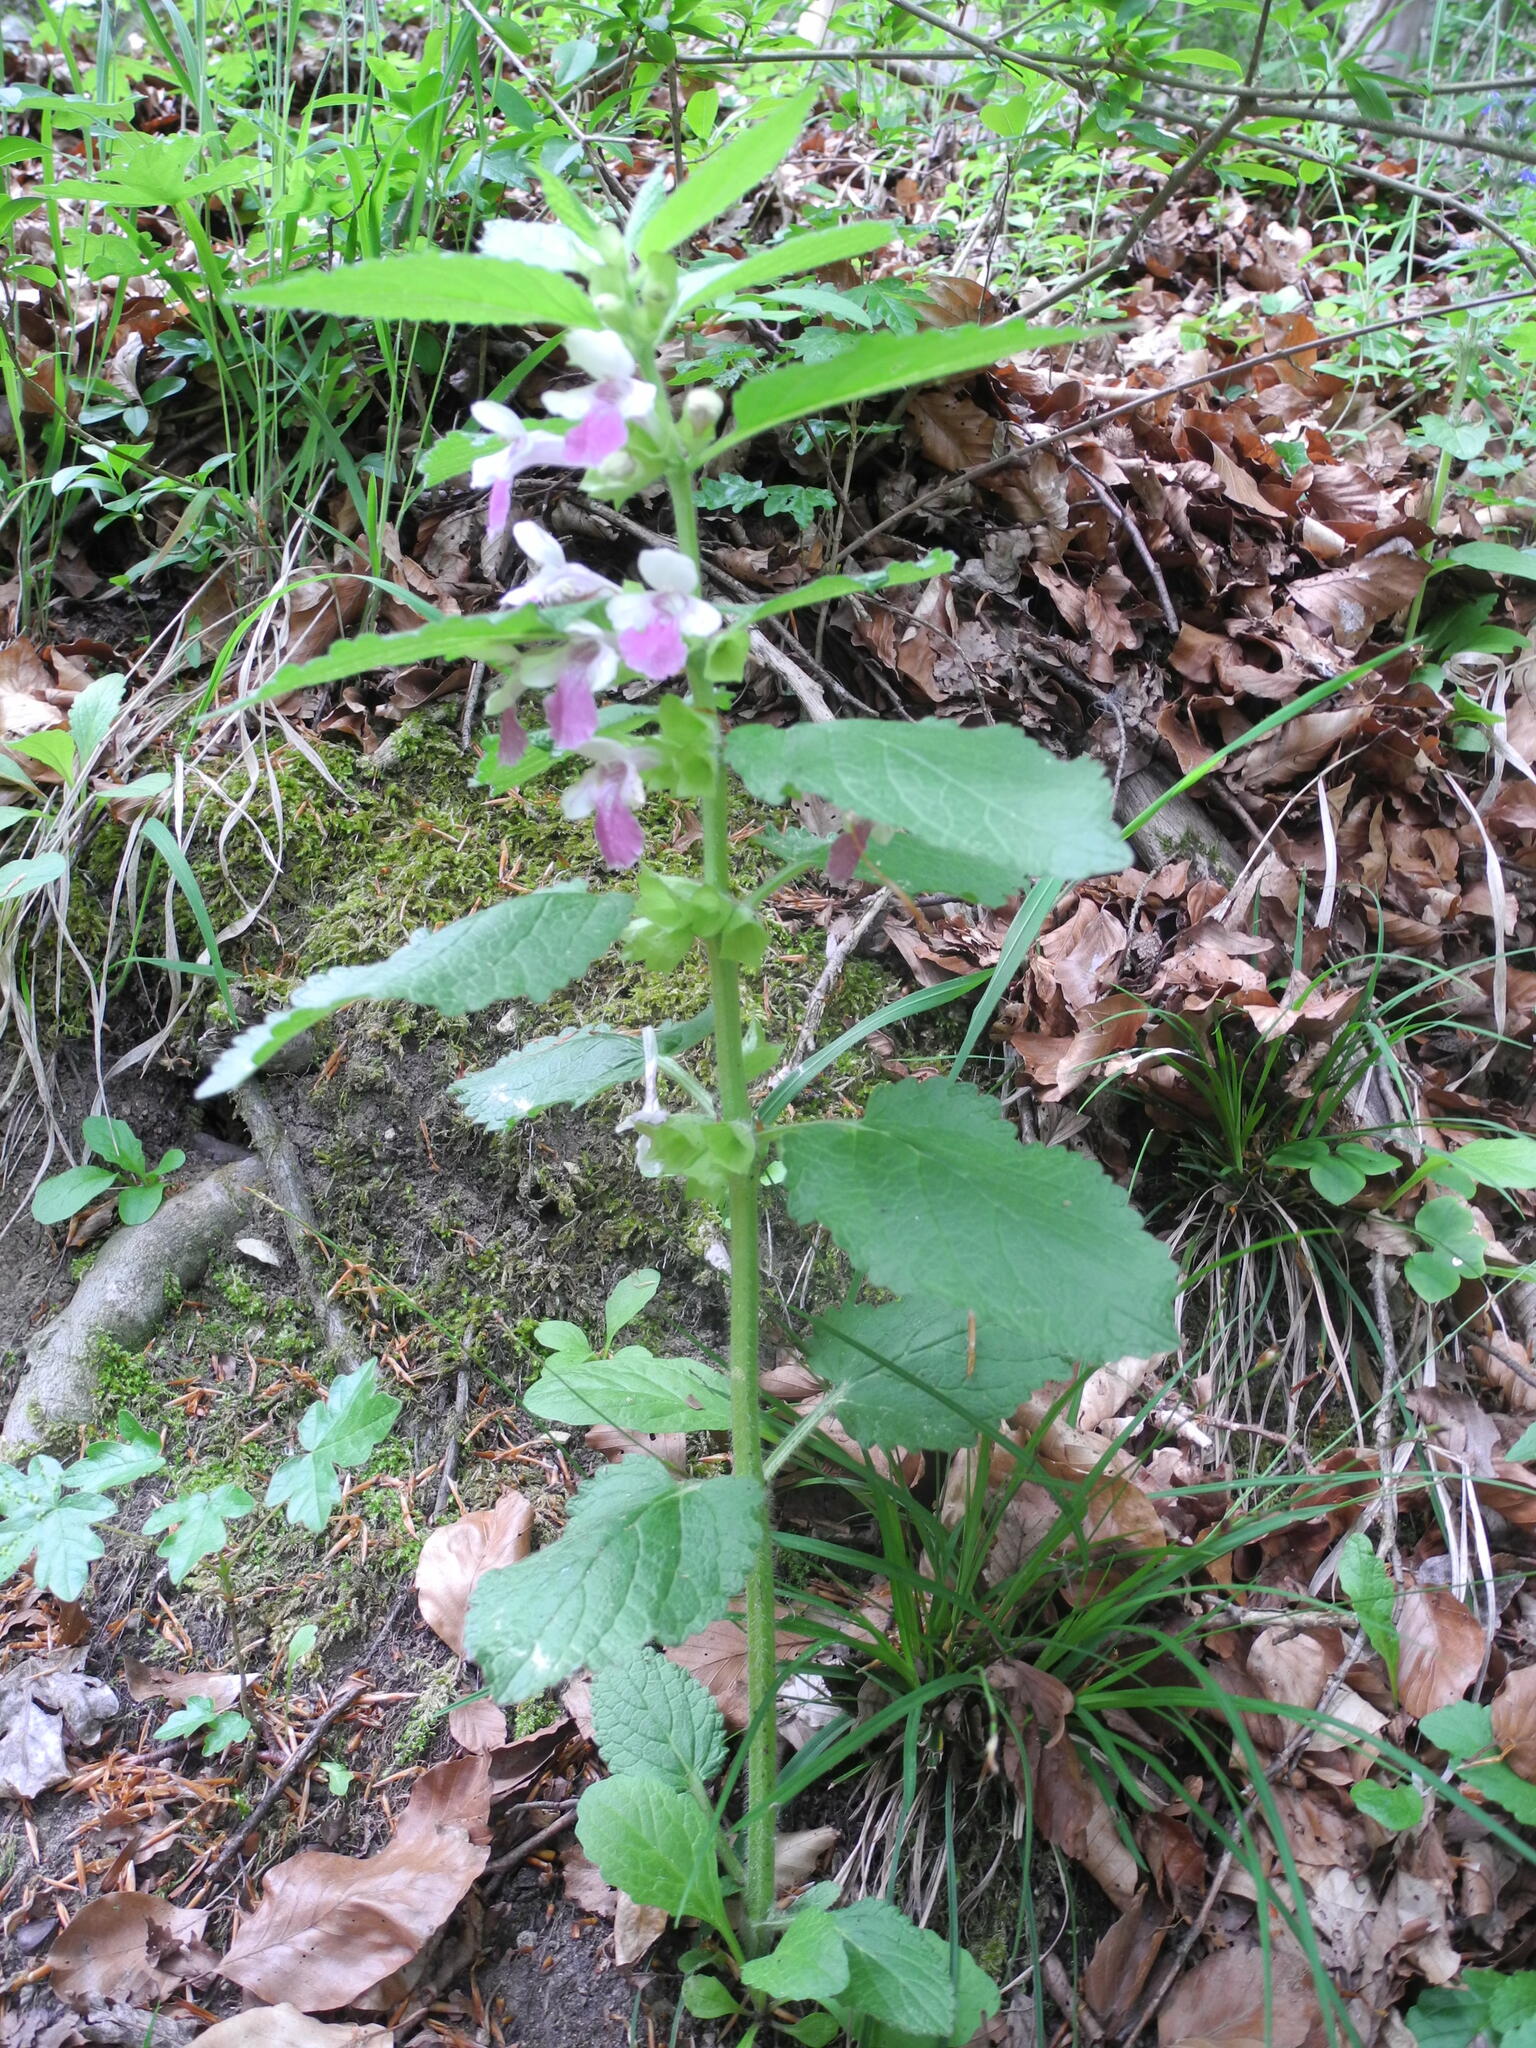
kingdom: Plantae
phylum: Tracheophyta
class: Magnoliopsida
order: Lamiales
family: Lamiaceae
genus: Melittis
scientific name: Melittis melissophyllum
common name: Bastard balm
